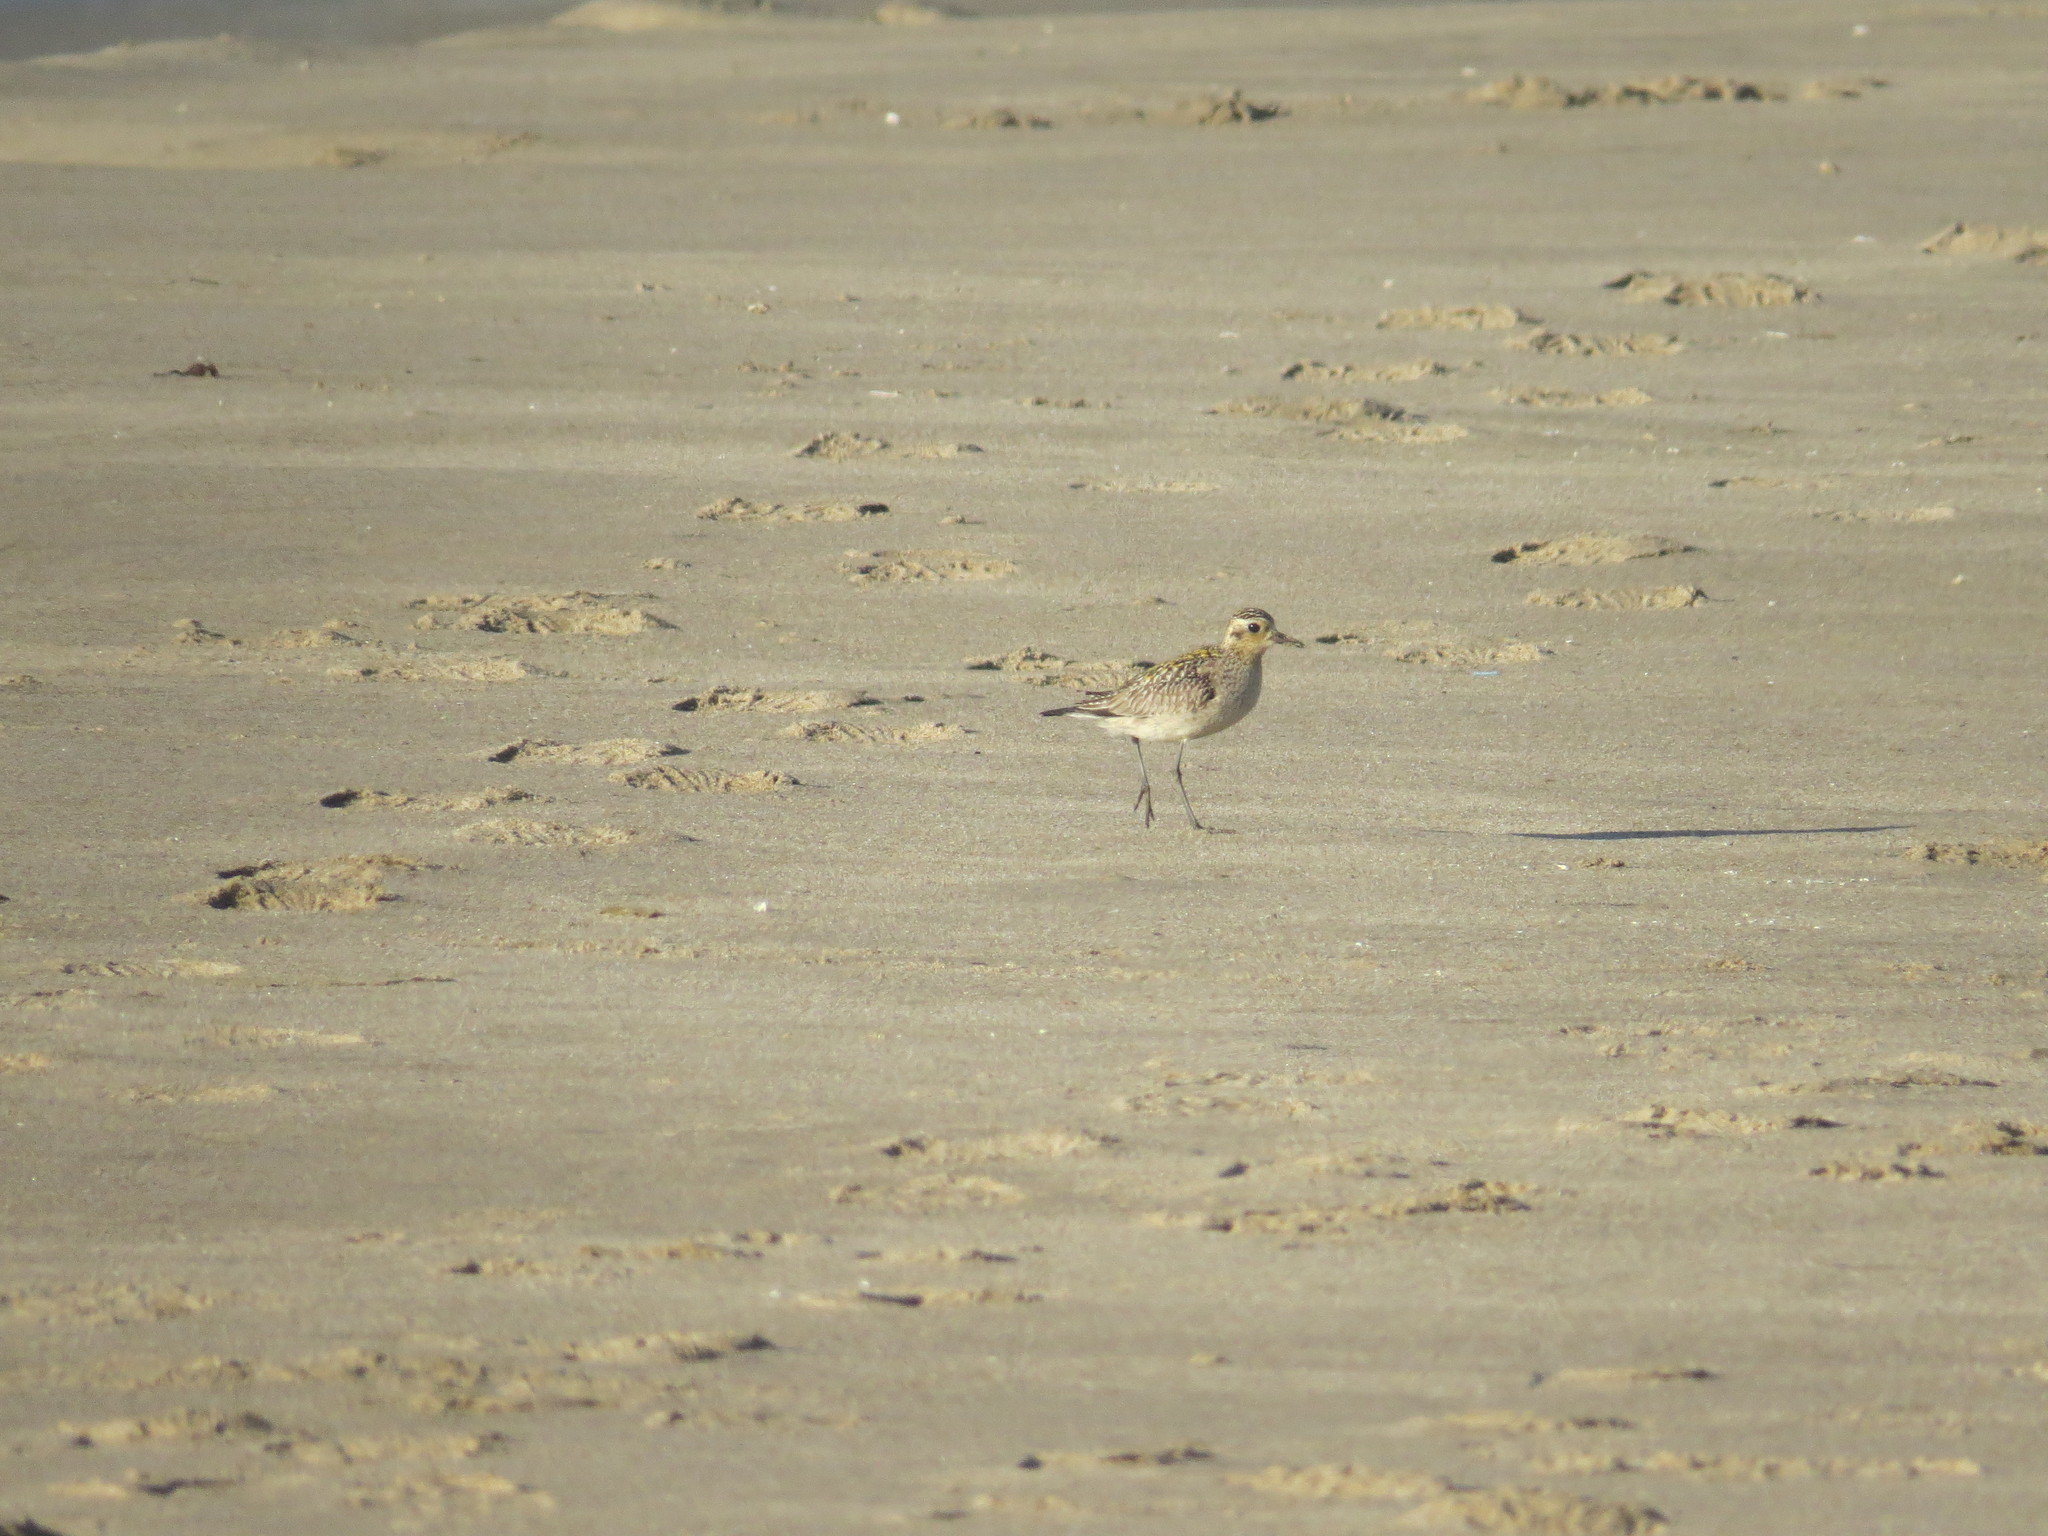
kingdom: Animalia
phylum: Chordata
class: Aves
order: Charadriiformes
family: Charadriidae
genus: Pluvialis
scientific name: Pluvialis fulva
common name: Pacific golden plover
